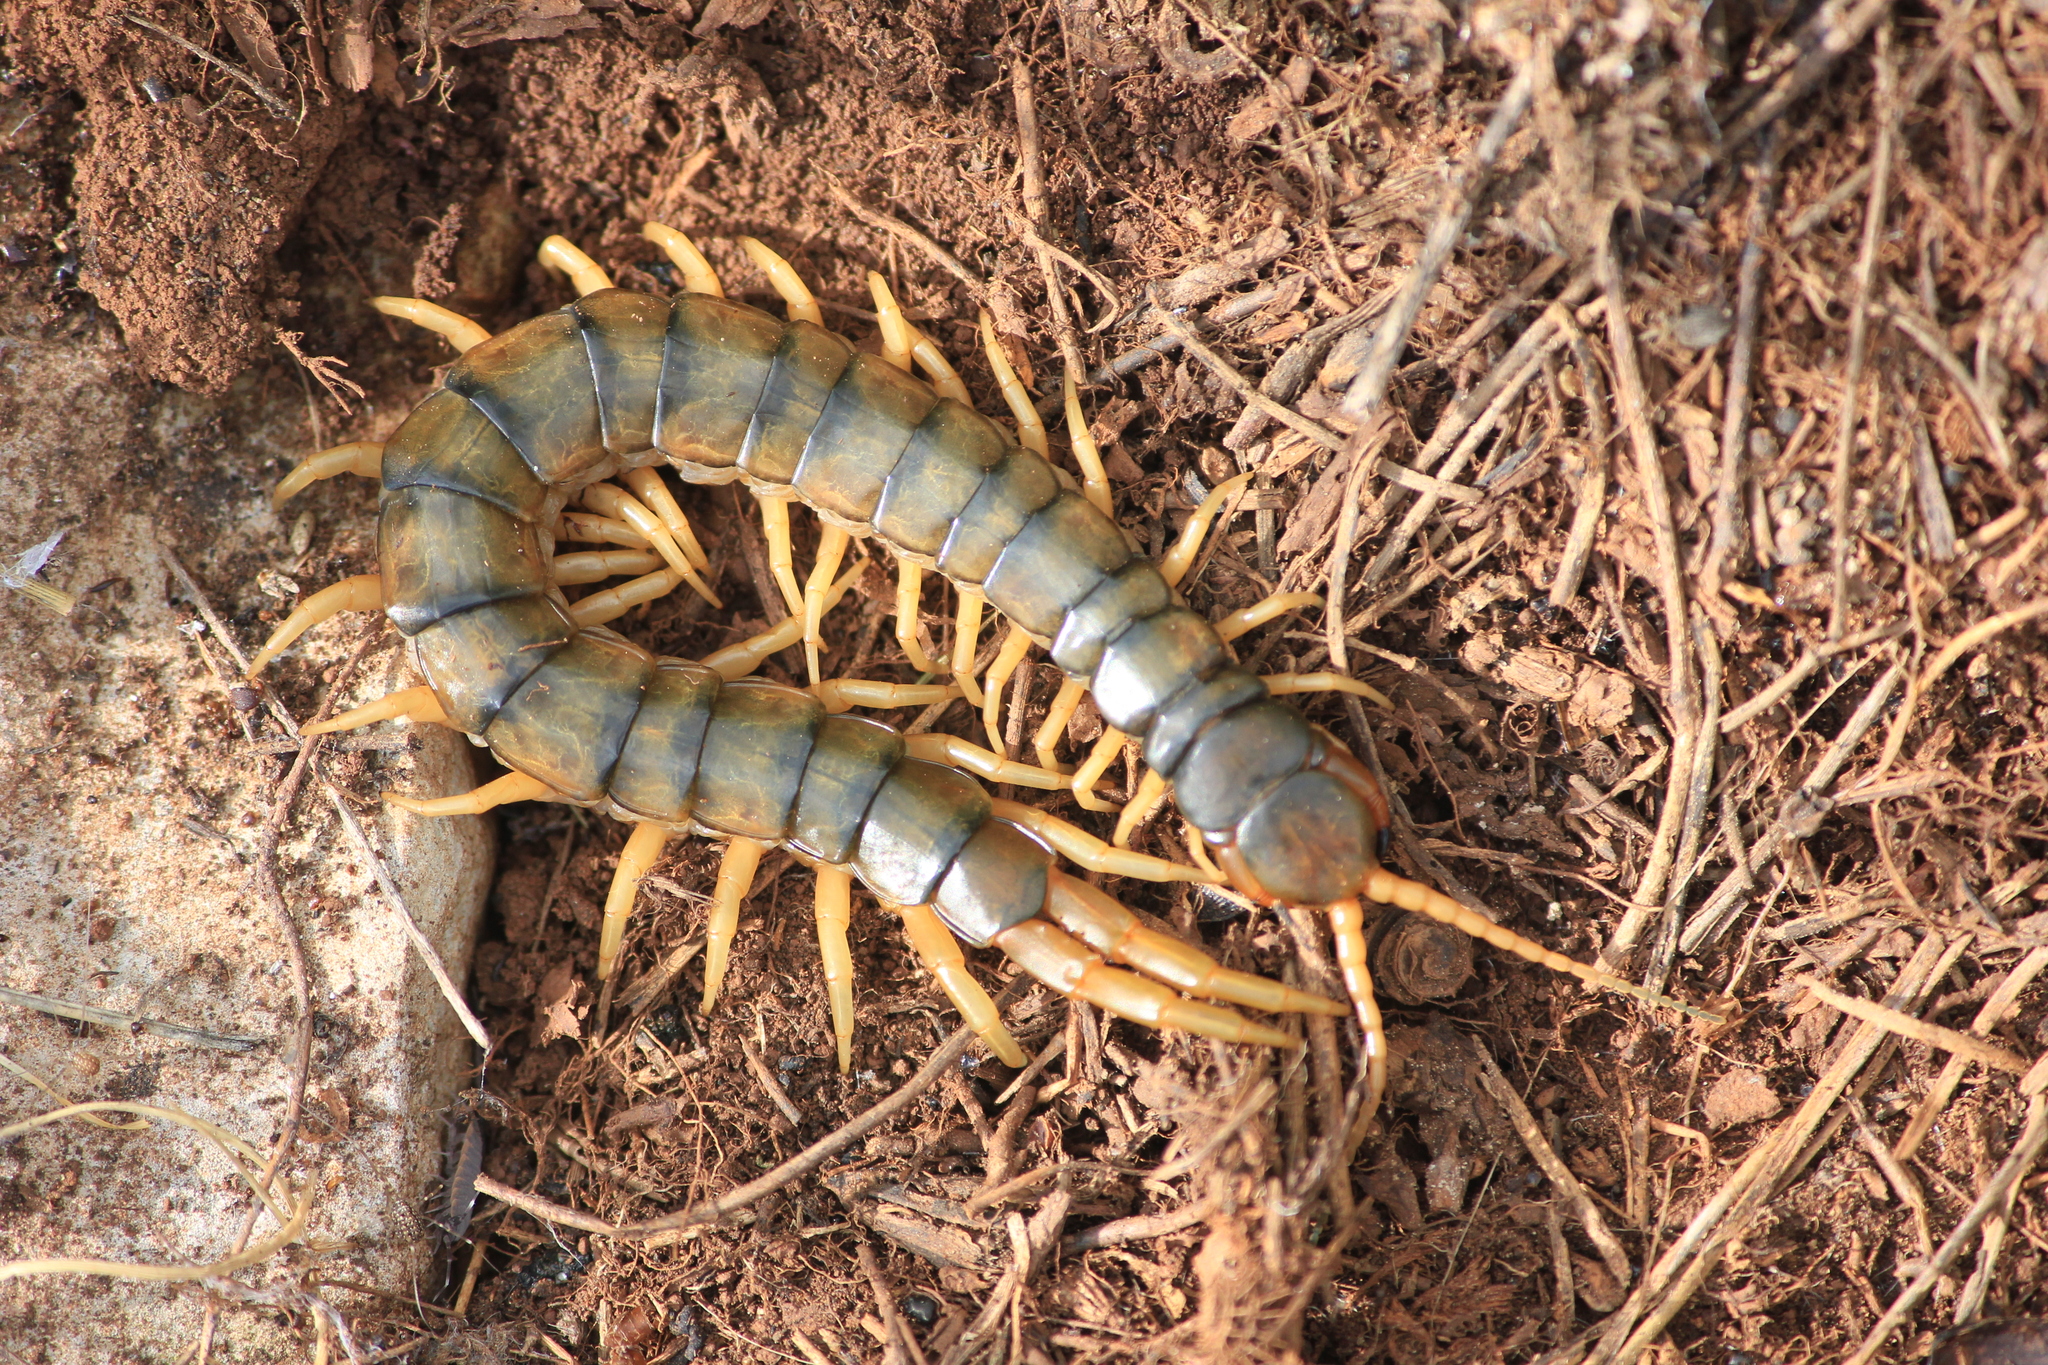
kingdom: Animalia
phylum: Arthropoda
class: Chilopoda
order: Scolopendromorpha
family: Scolopendridae
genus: Scolopendra
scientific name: Scolopendra cingulata
